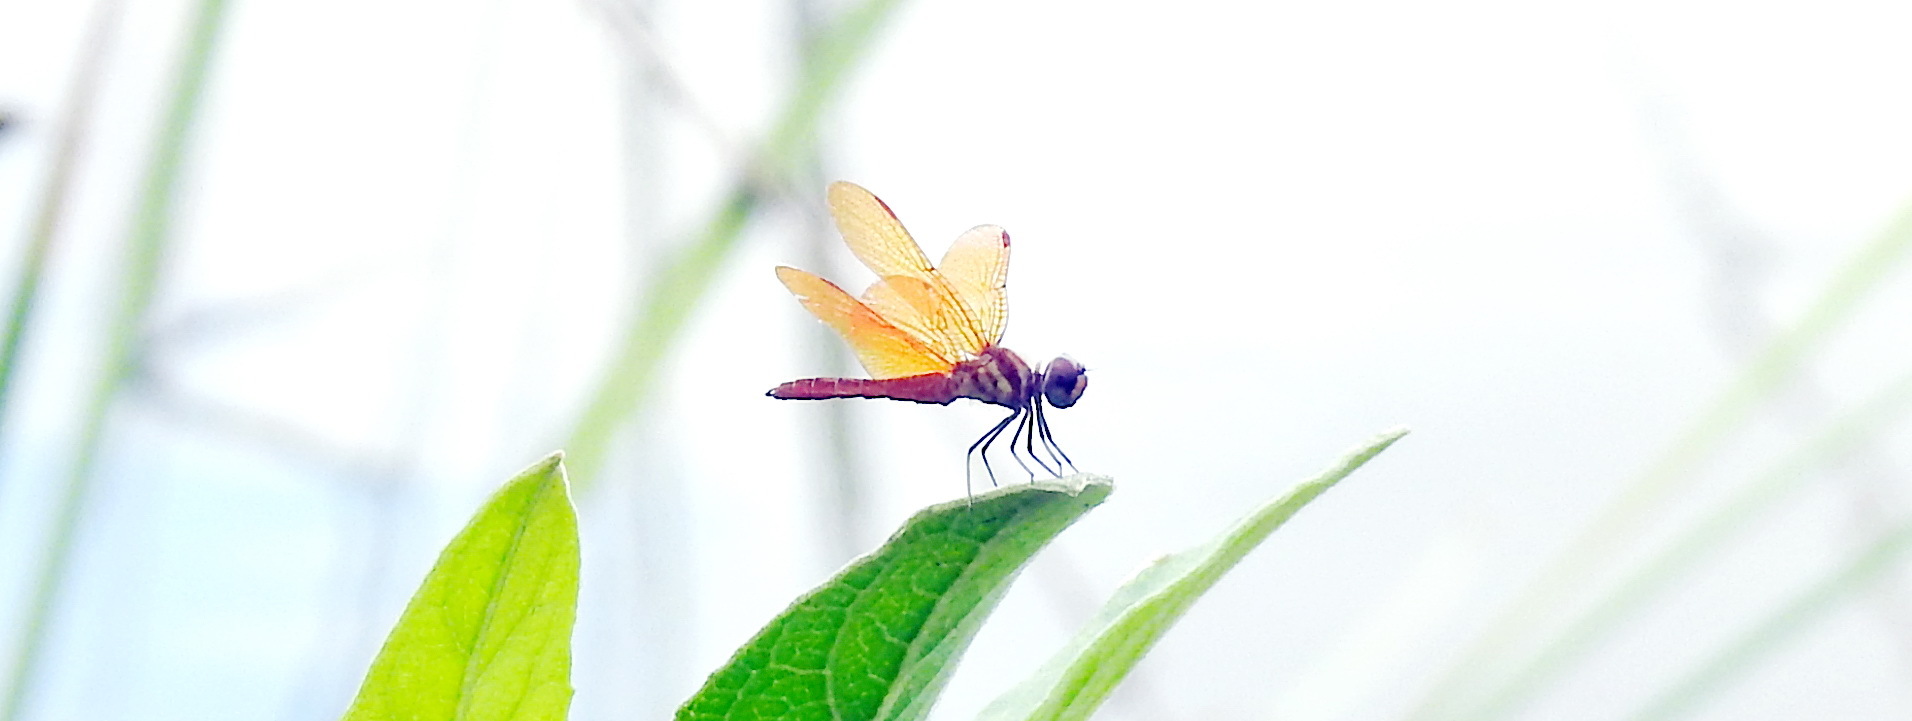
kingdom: Animalia
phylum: Arthropoda
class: Insecta
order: Odonata
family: Libellulidae
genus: Perithemis
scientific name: Perithemis domitia
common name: Slough amberwing
